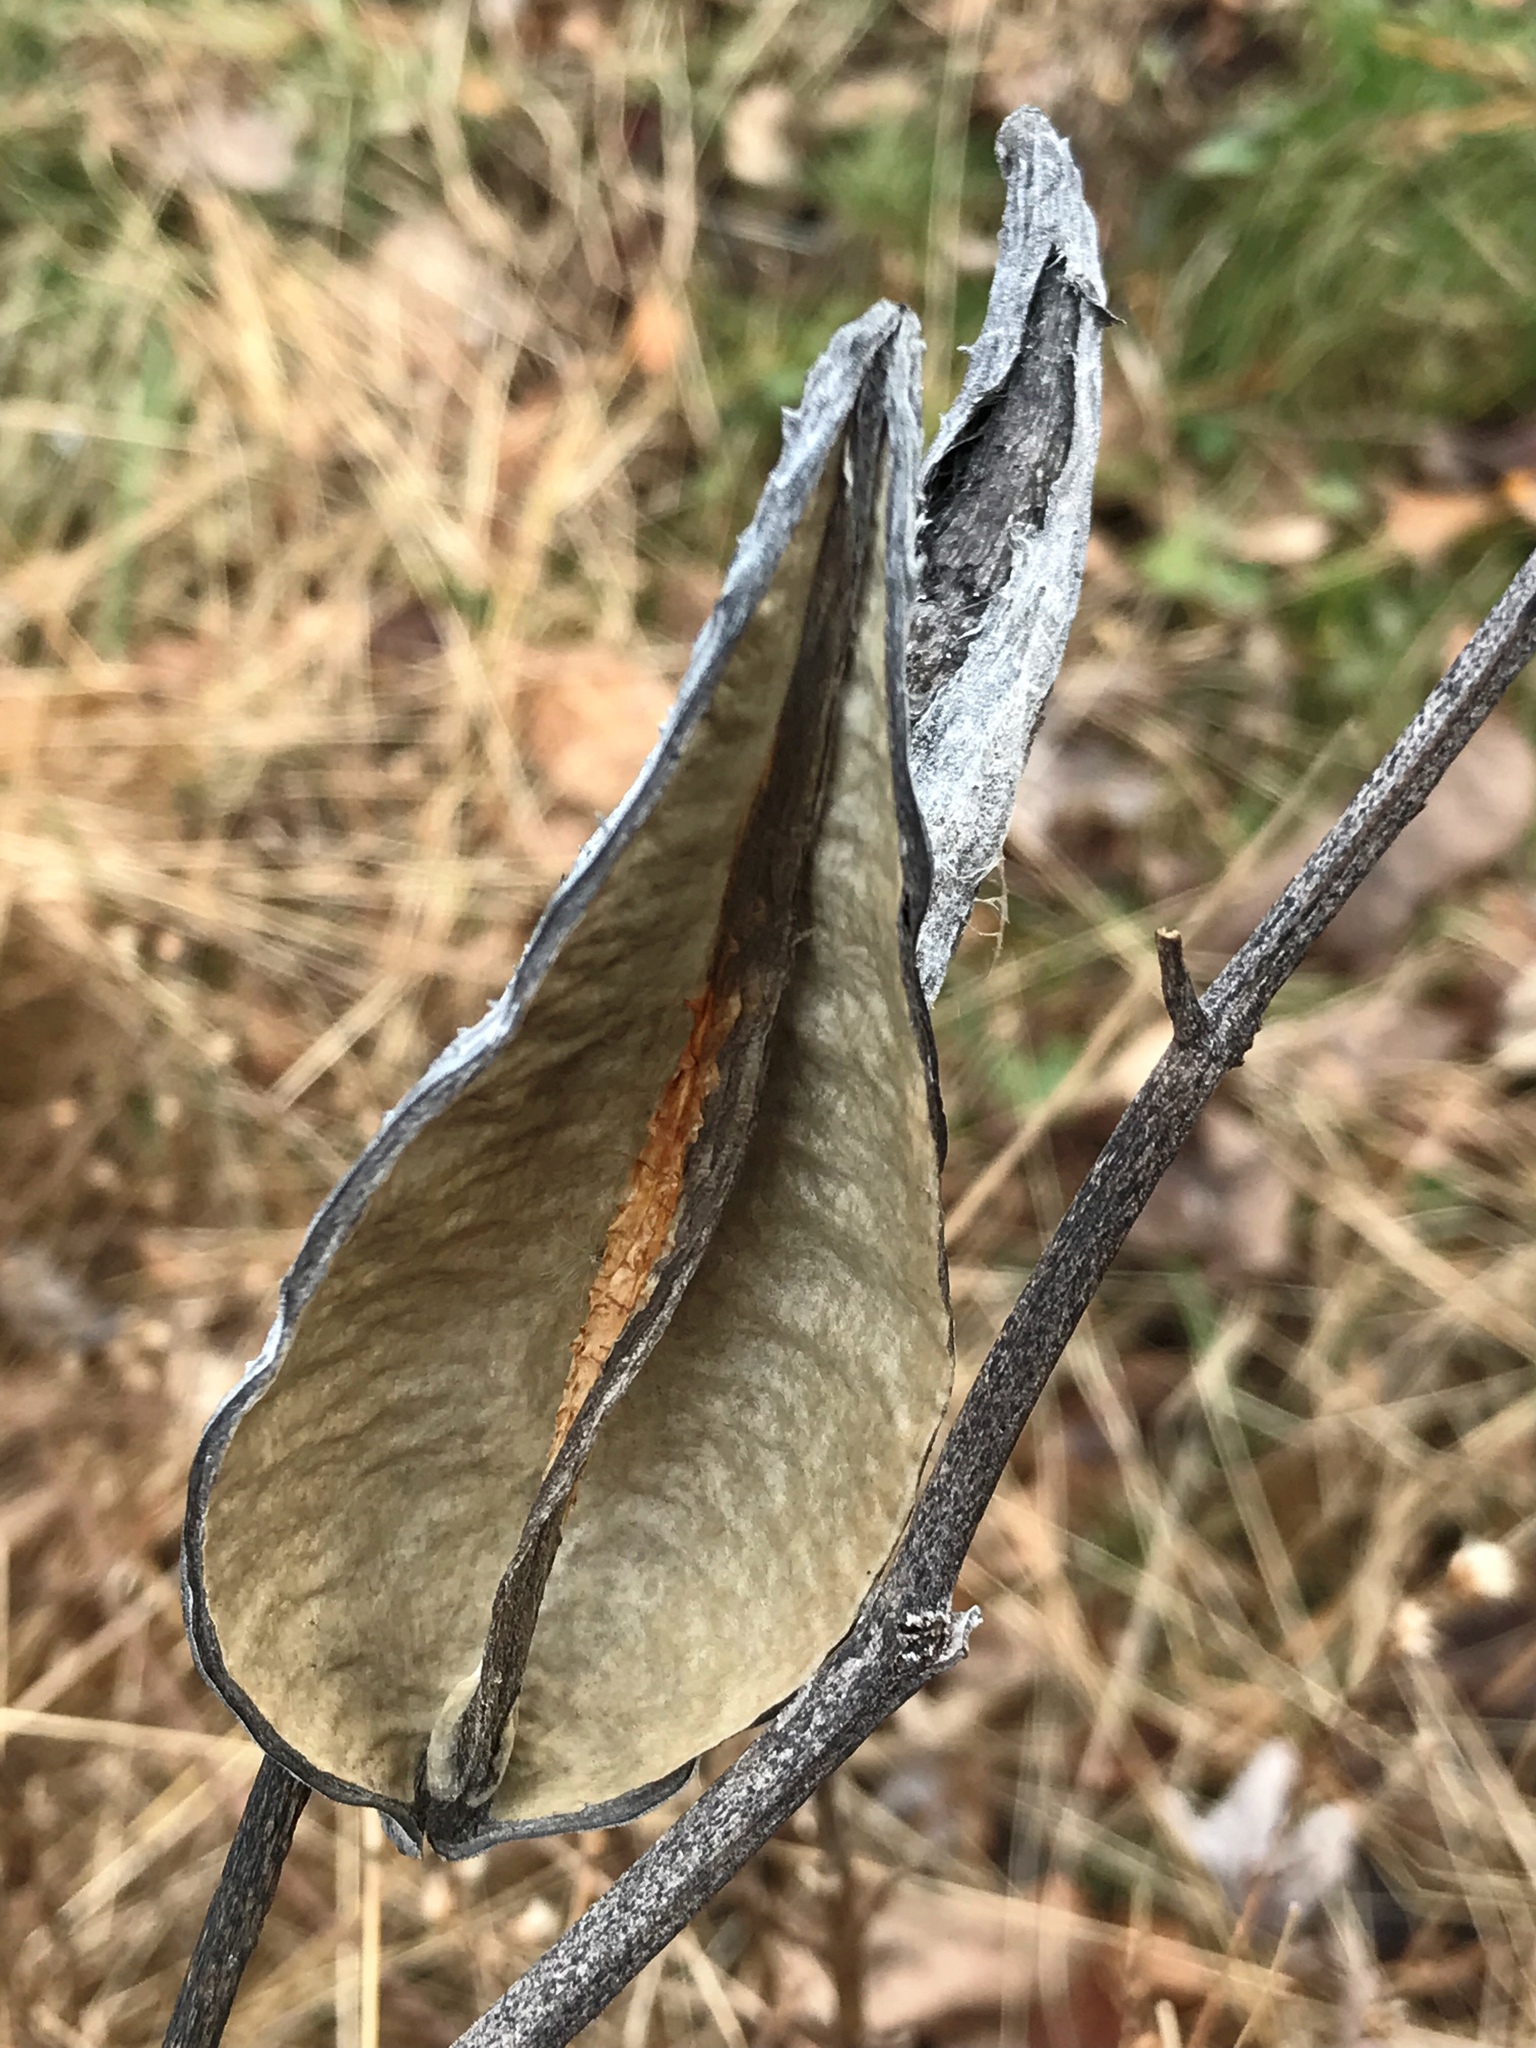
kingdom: Plantae
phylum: Tracheophyta
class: Magnoliopsida
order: Gentianales
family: Apocynaceae
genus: Asclepias
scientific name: Asclepias syriaca
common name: Common milkweed
